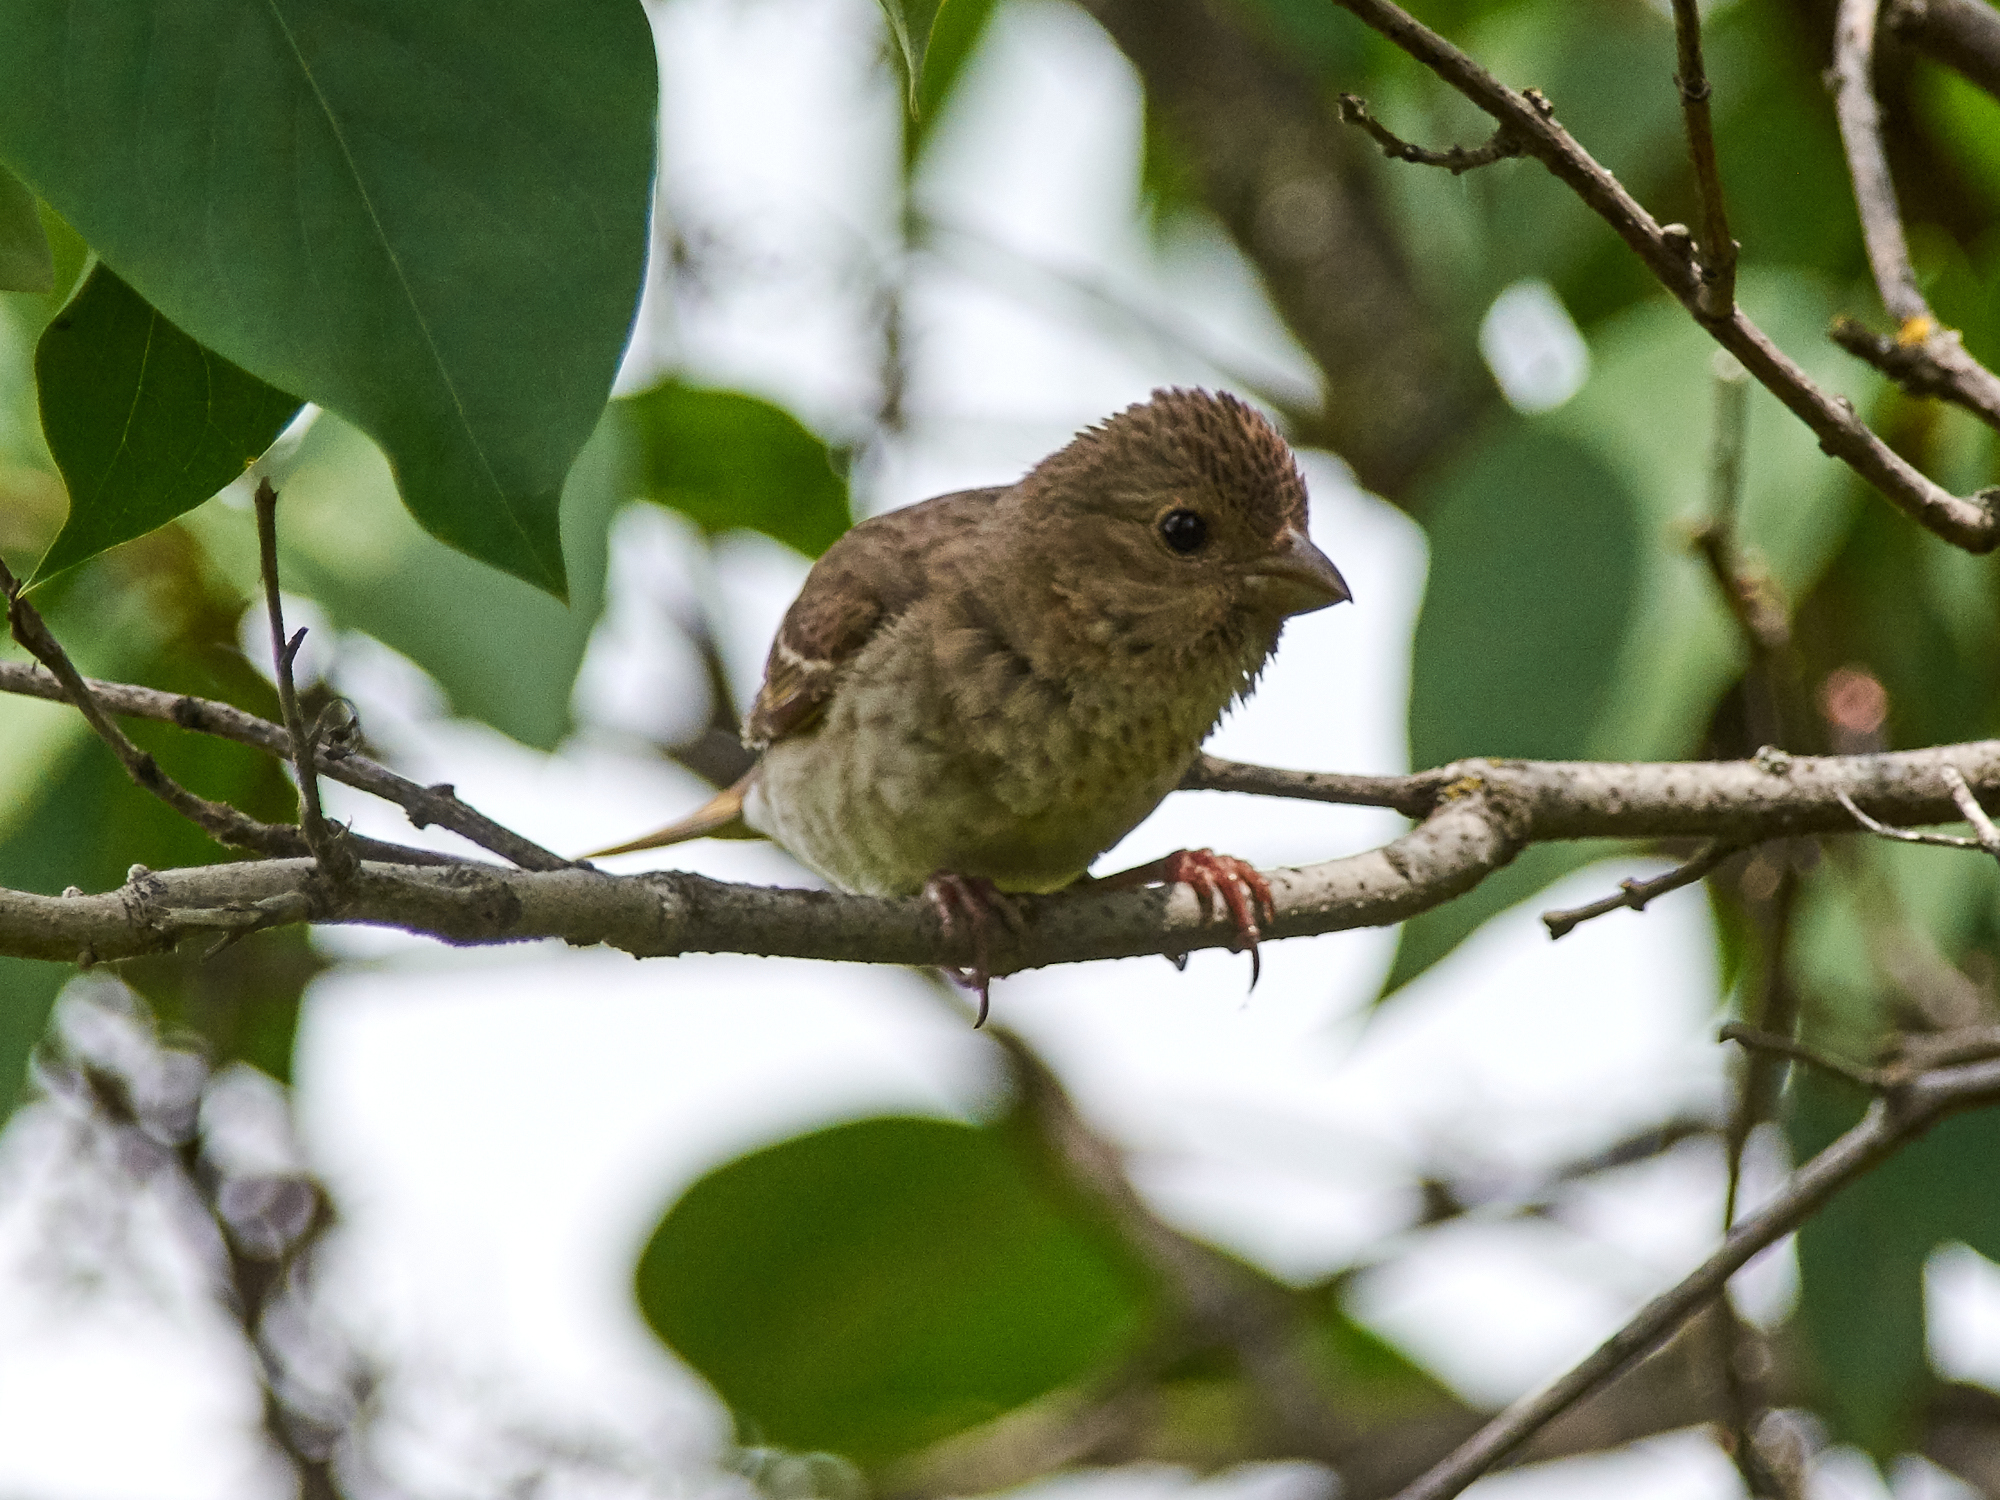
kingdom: Animalia
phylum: Chordata
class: Aves
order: Passeriformes
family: Fringillidae
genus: Carpodacus
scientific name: Carpodacus erythrinus
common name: Common rosefinch
